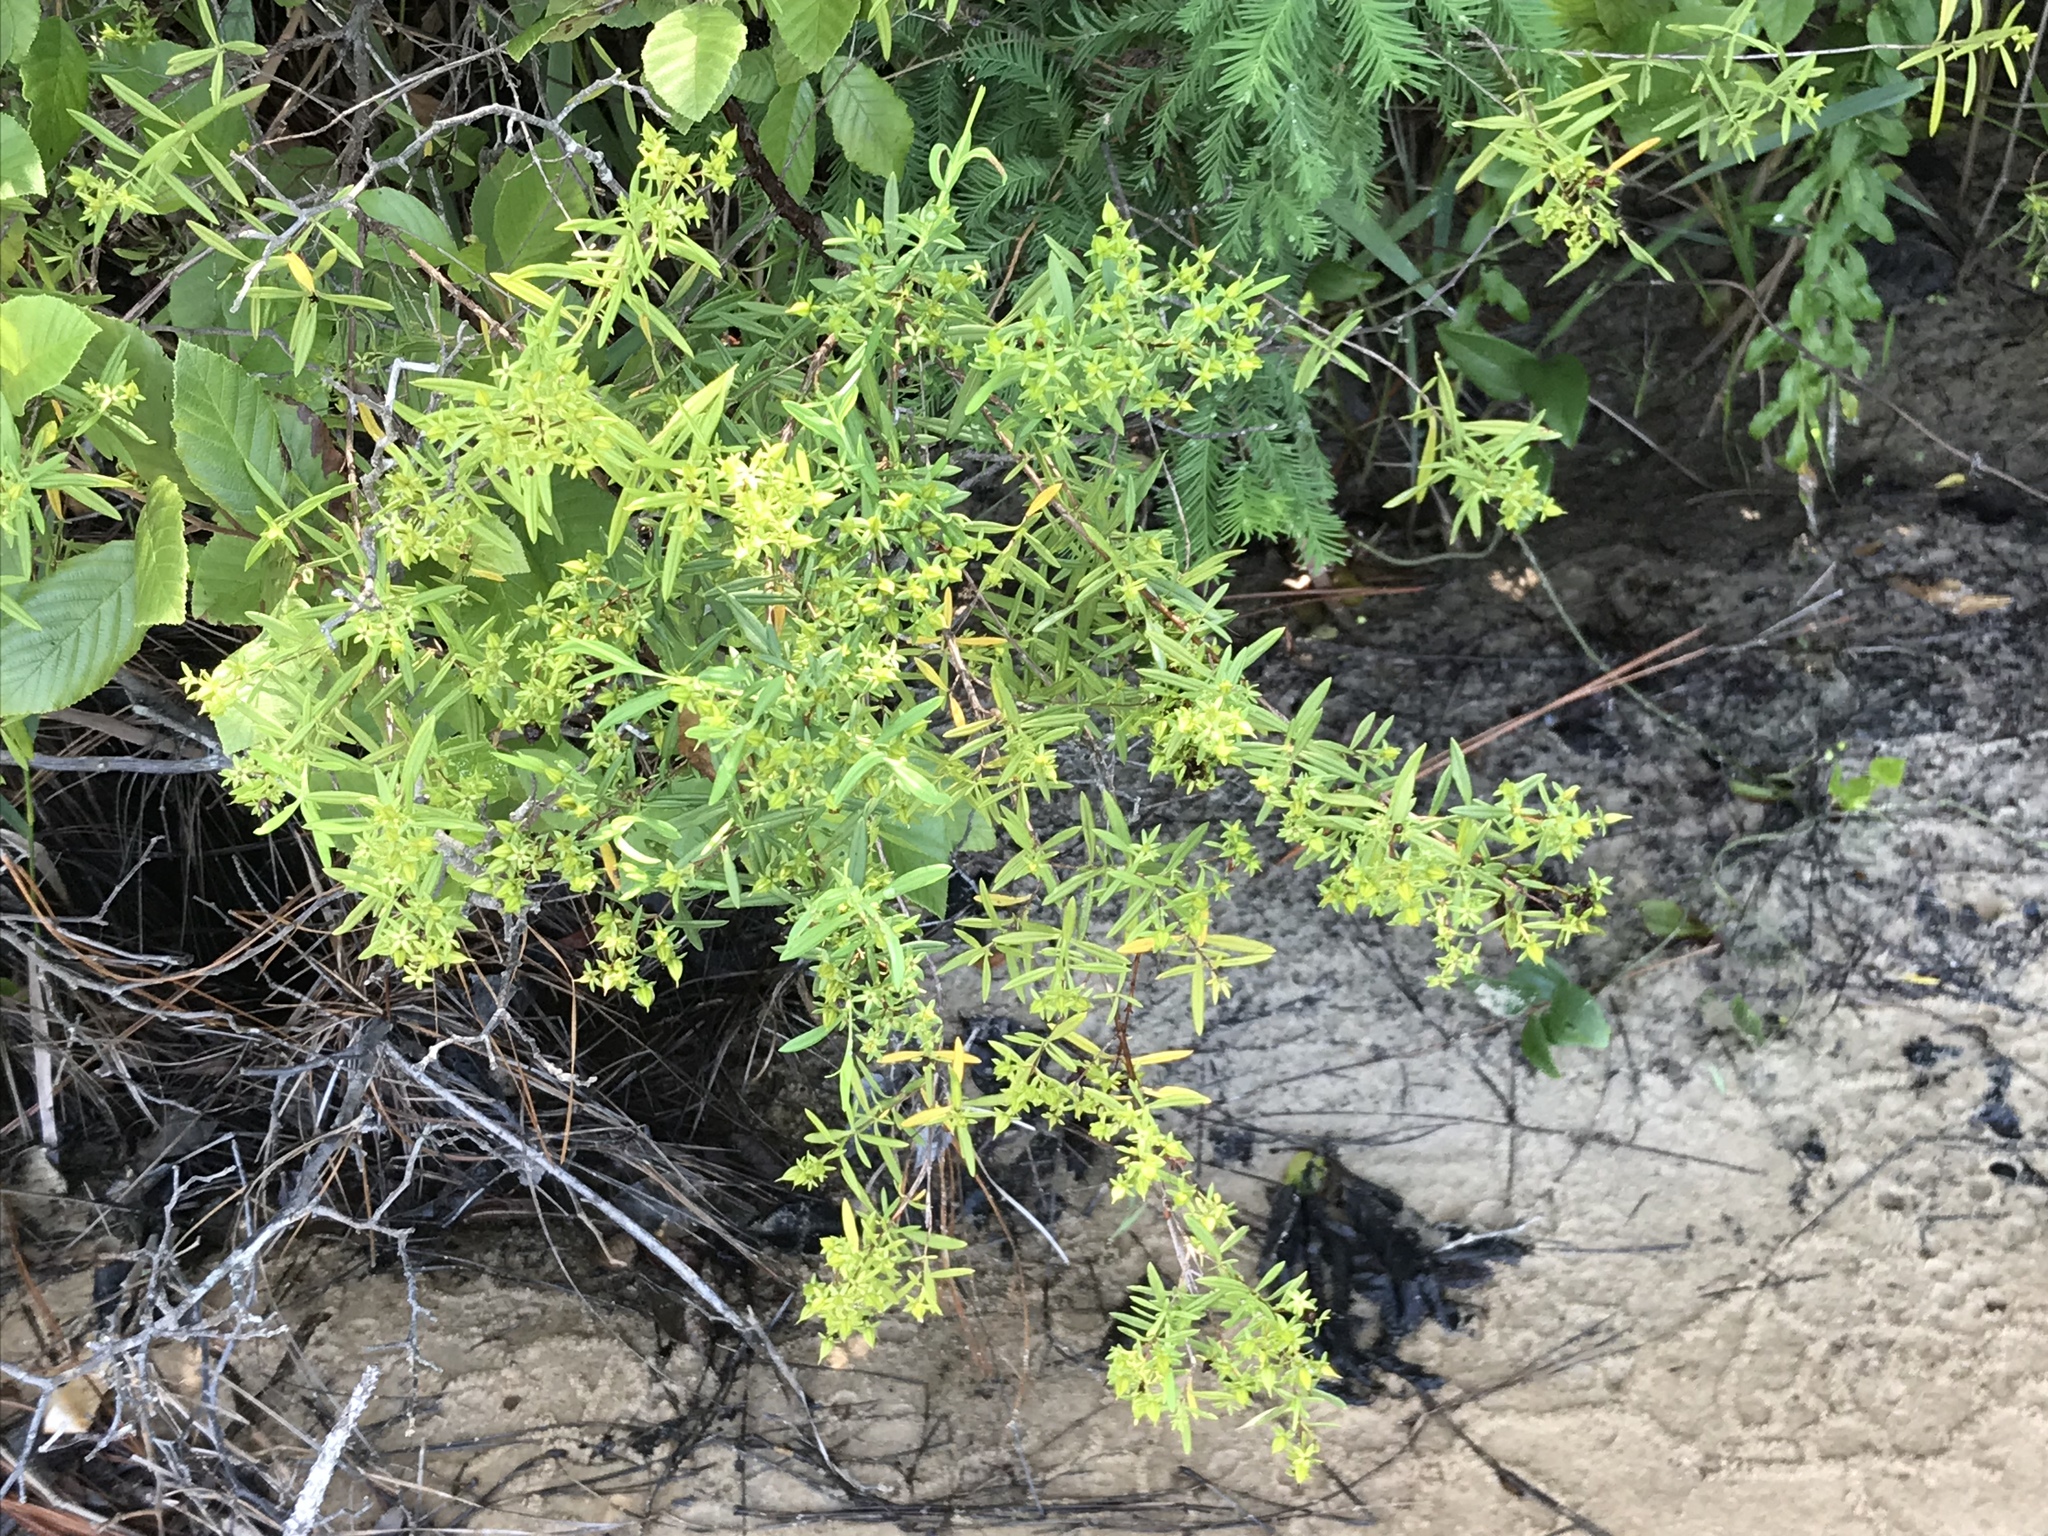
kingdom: Plantae
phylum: Tracheophyta
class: Magnoliopsida
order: Malpighiales
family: Hypericaceae
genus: Hypericum
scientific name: Hypericum lobocarpum
